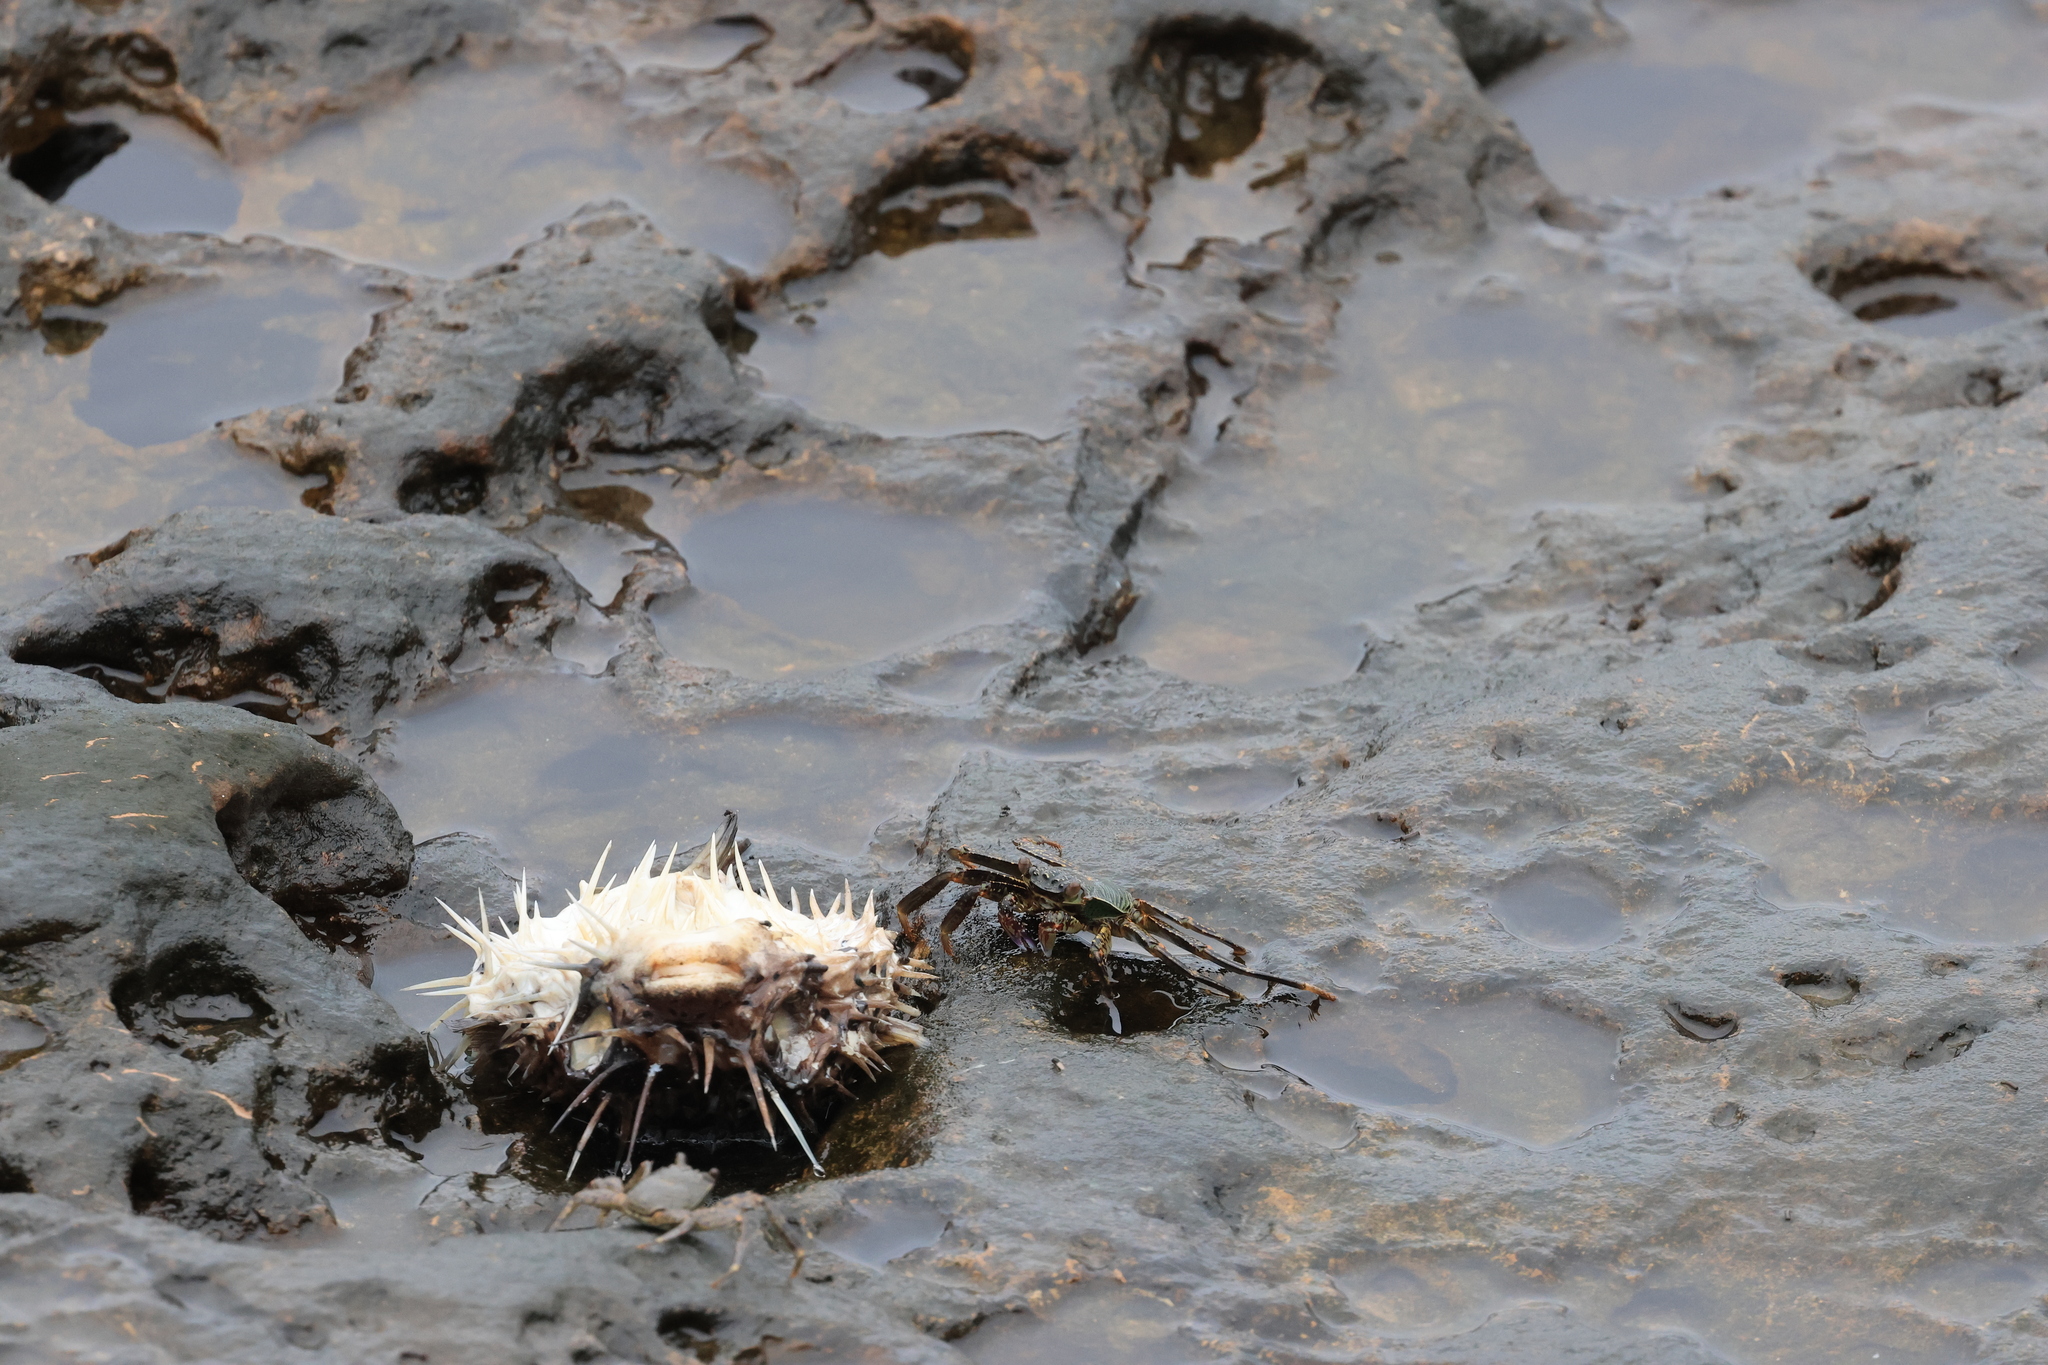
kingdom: Animalia
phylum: Arthropoda
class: Malacostraca
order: Decapoda
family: Grapsidae
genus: Grapsus
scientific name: Grapsus albolineatus
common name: Mottled lightfoot crab
